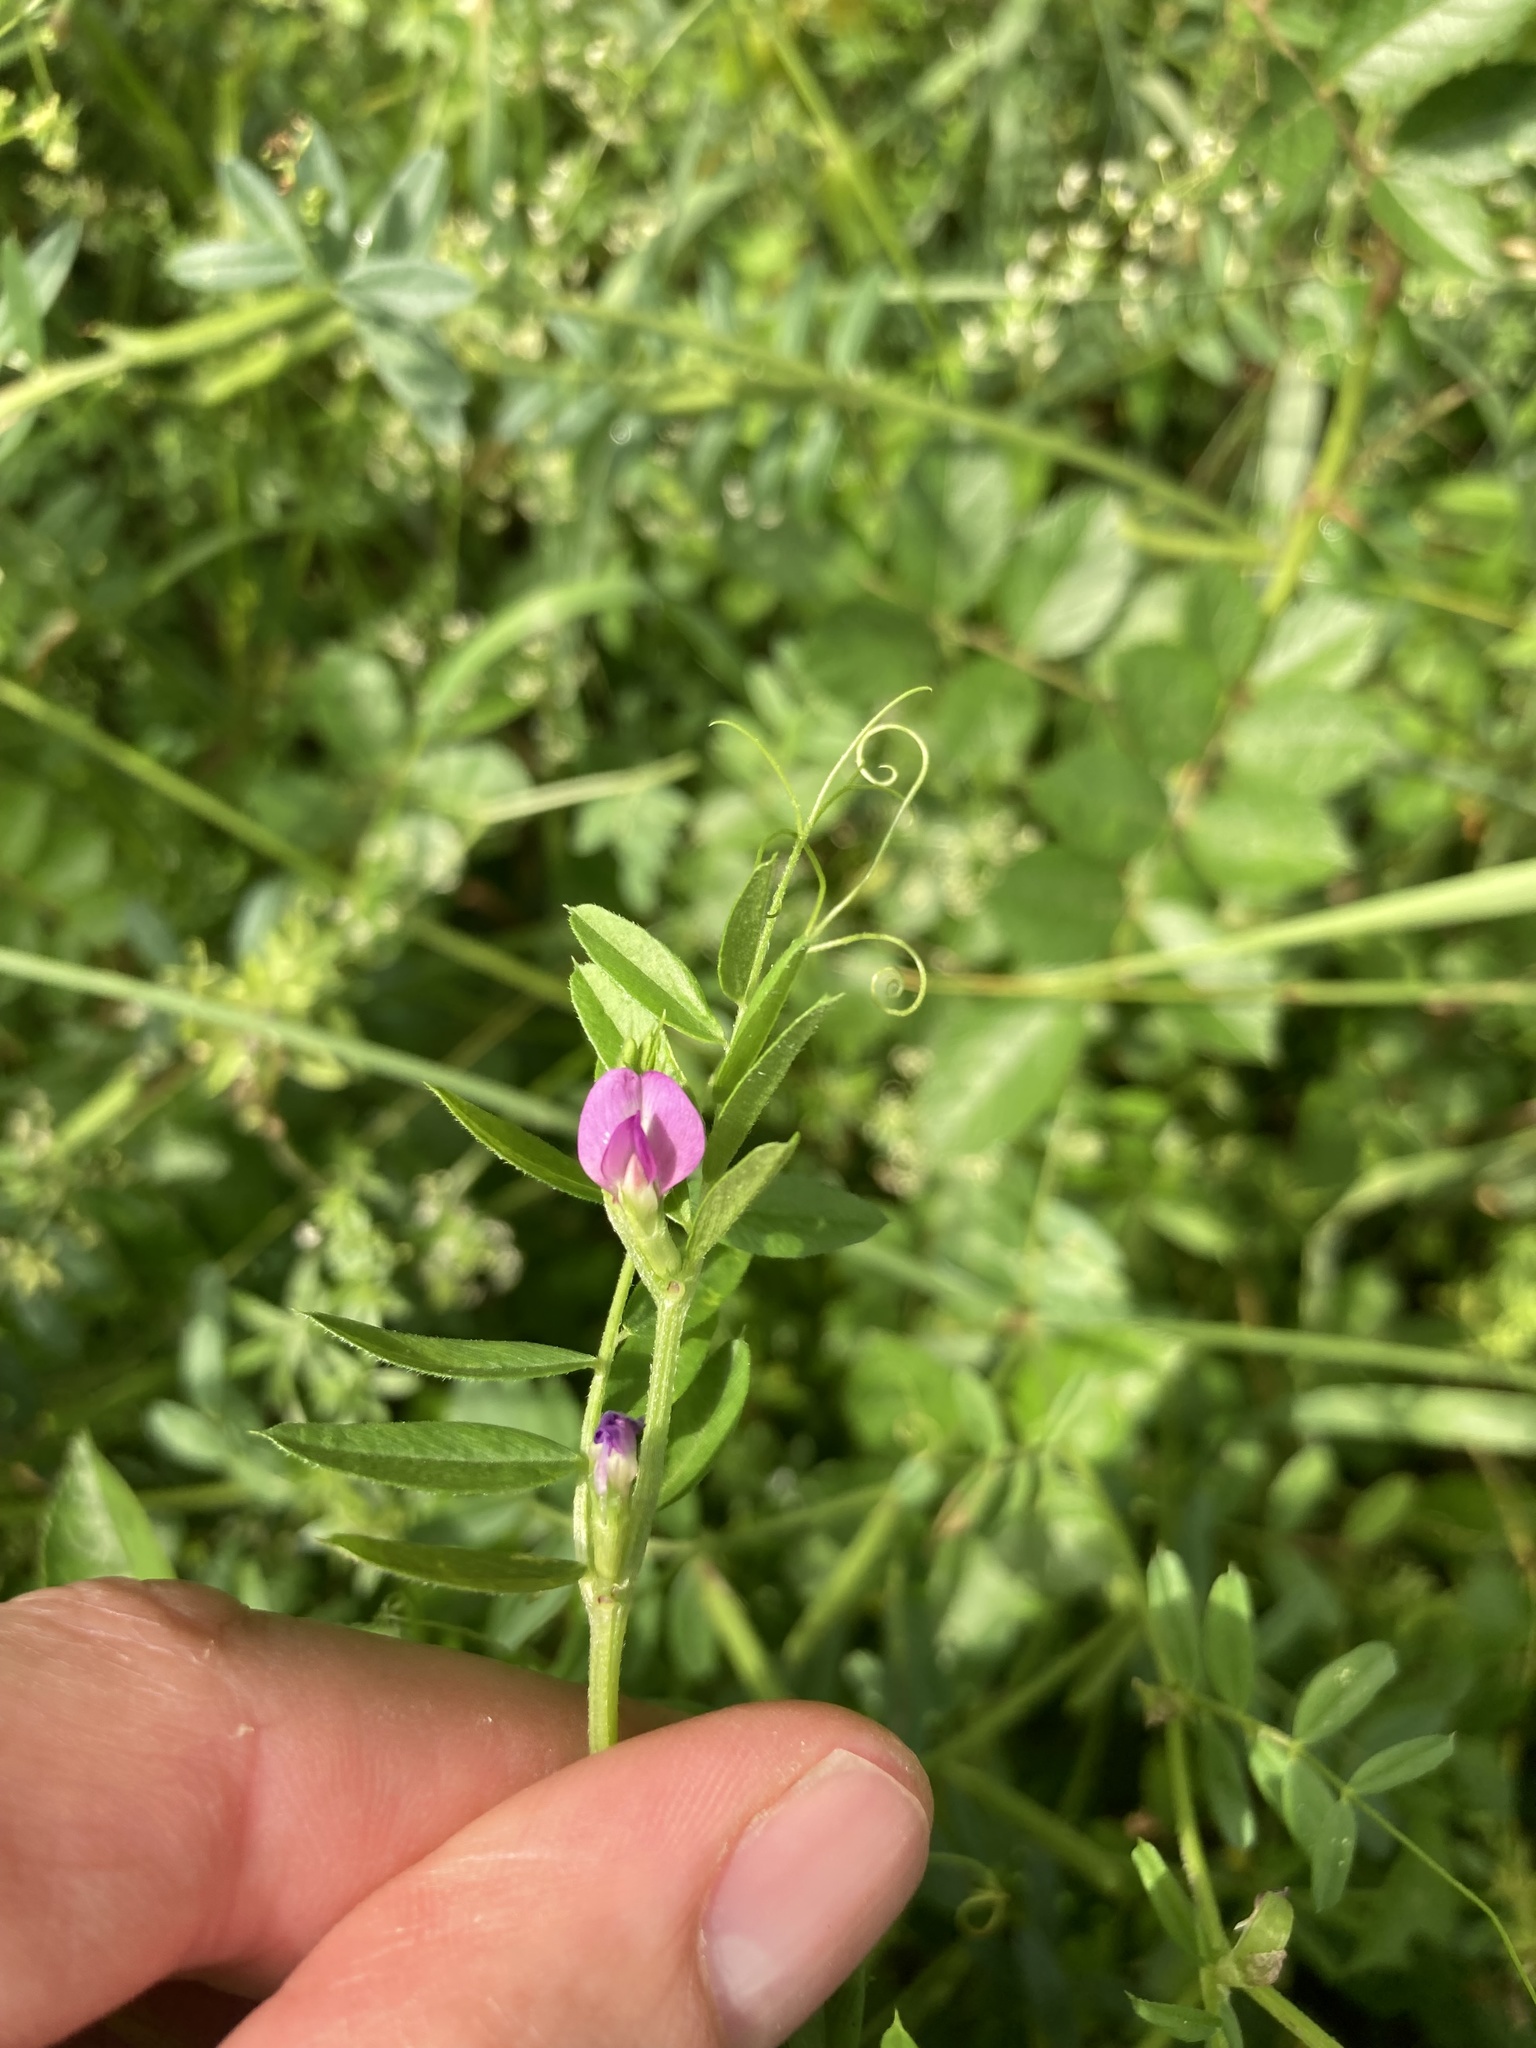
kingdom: Plantae
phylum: Tracheophyta
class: Magnoliopsida
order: Fabales
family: Fabaceae
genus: Vicia
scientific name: Vicia sativa
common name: Garden vetch
